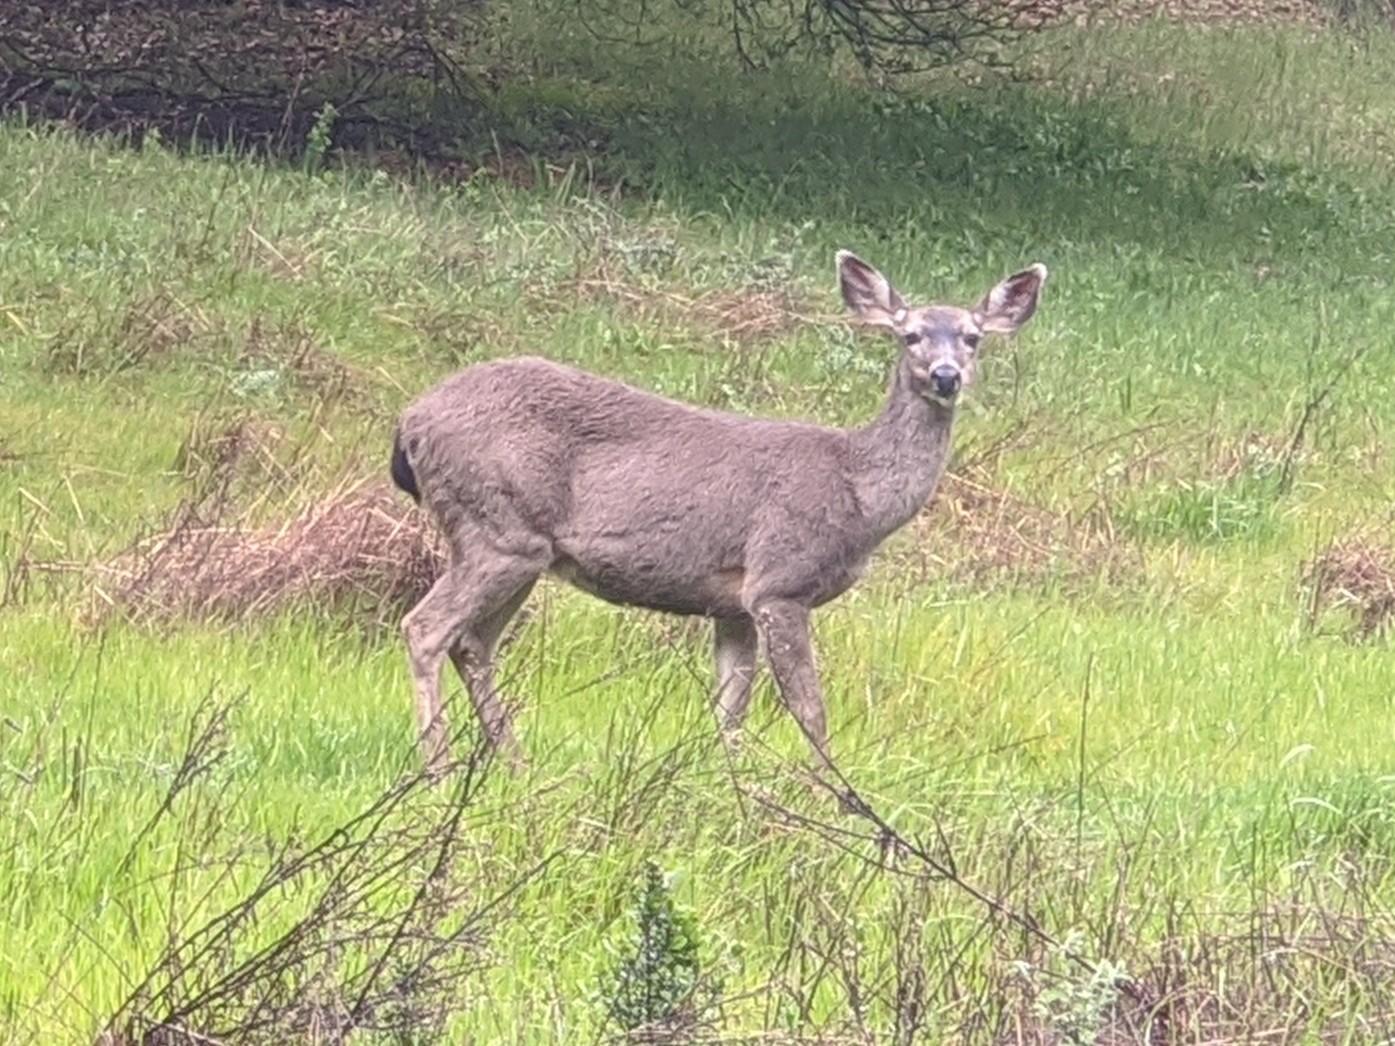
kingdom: Animalia
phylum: Chordata
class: Mammalia
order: Artiodactyla
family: Cervidae
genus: Odocoileus
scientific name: Odocoileus hemionus
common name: Mule deer
